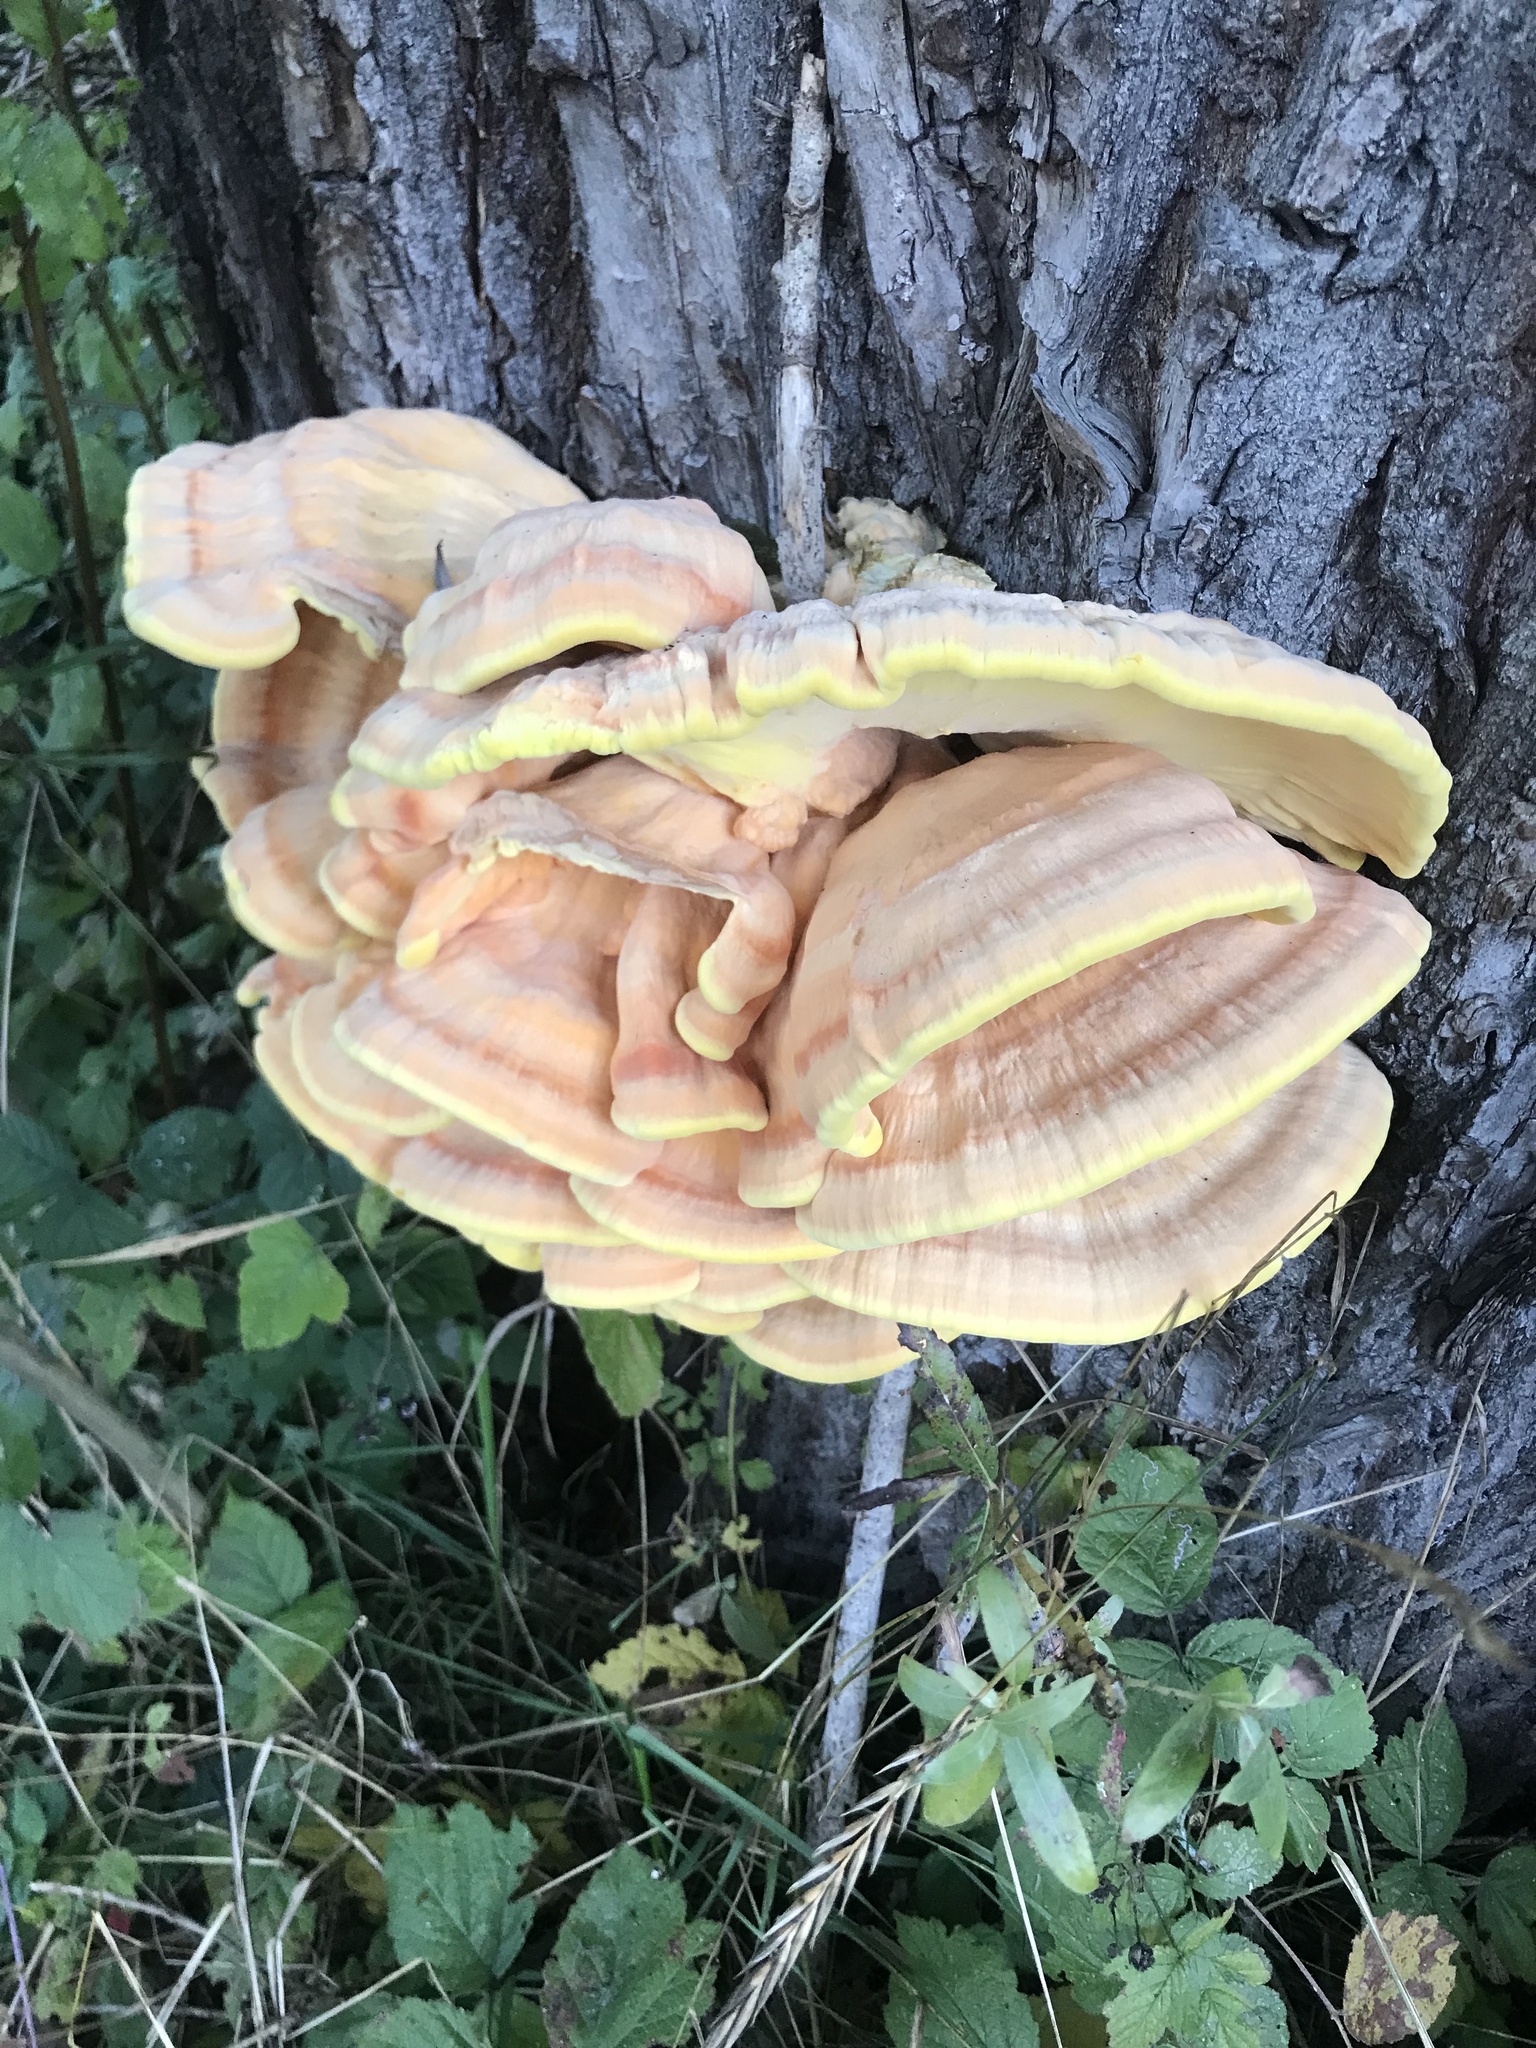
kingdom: Fungi
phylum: Basidiomycota
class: Agaricomycetes
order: Polyporales
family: Laetiporaceae
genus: Laetiporus
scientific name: Laetiporus sulphureus
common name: Chicken of the woods
